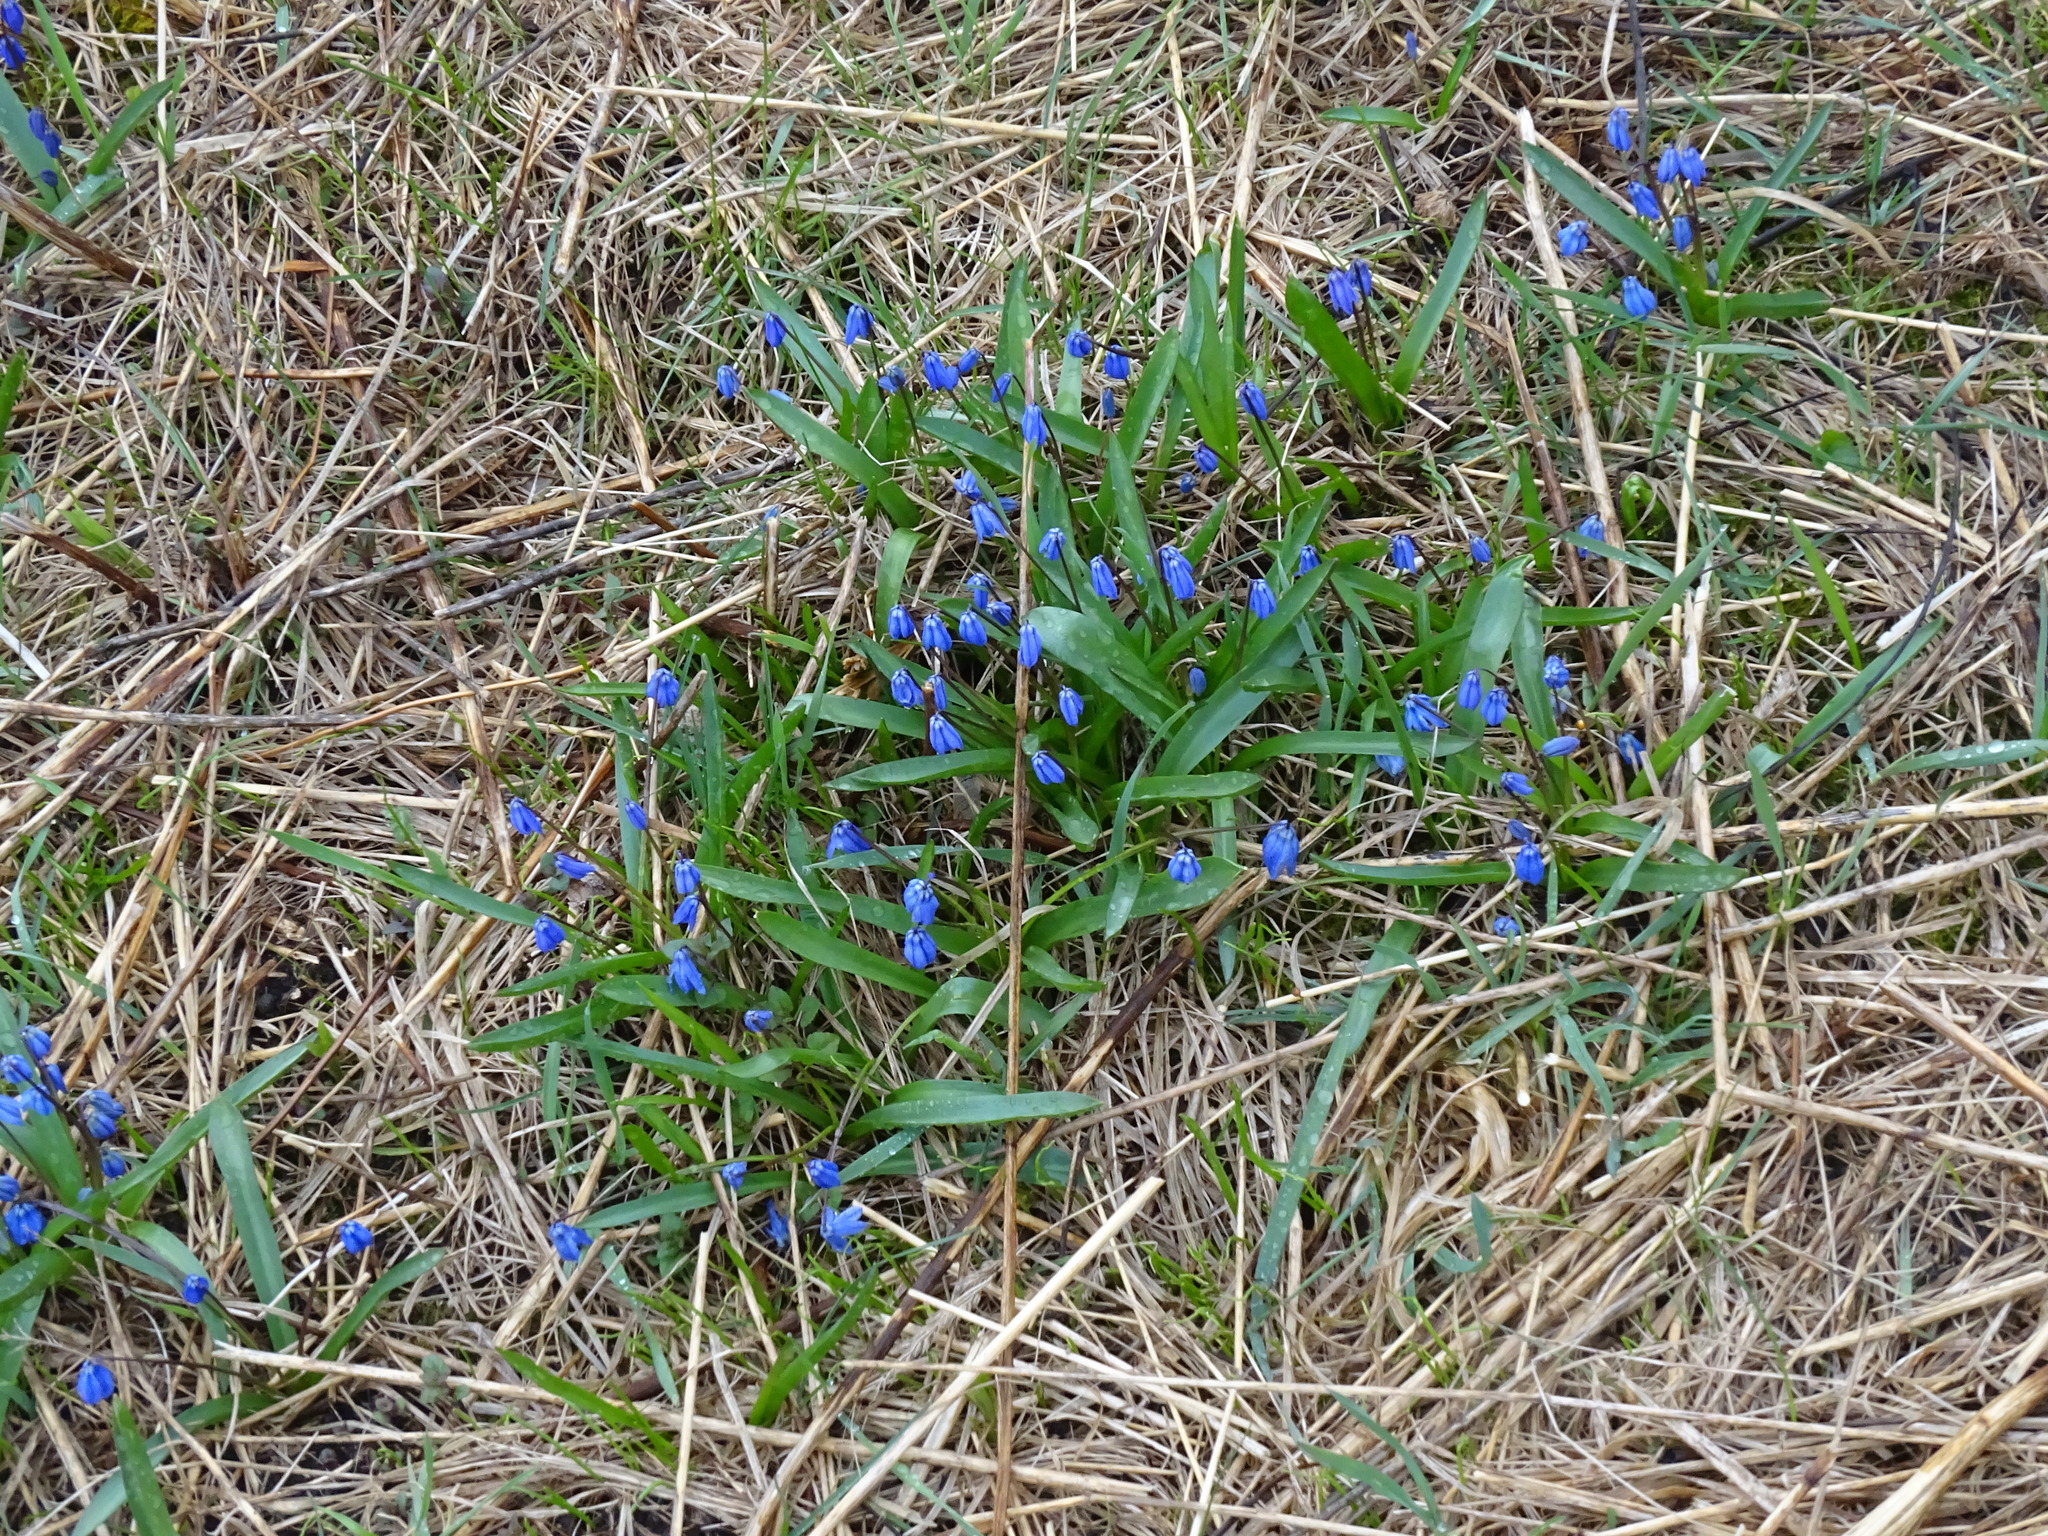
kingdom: Plantae
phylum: Tracheophyta
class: Liliopsida
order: Asparagales
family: Asparagaceae
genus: Scilla
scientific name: Scilla siberica
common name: Siberian squill
